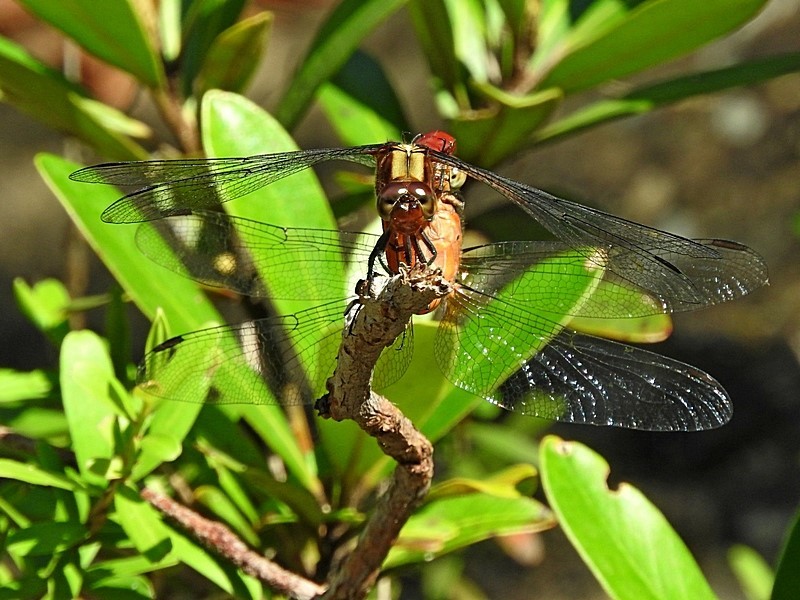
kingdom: Animalia
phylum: Arthropoda
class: Insecta
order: Odonata
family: Libellulidae
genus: Orthetrum
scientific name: Orthetrum villosovittatum
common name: Firery skimmer
